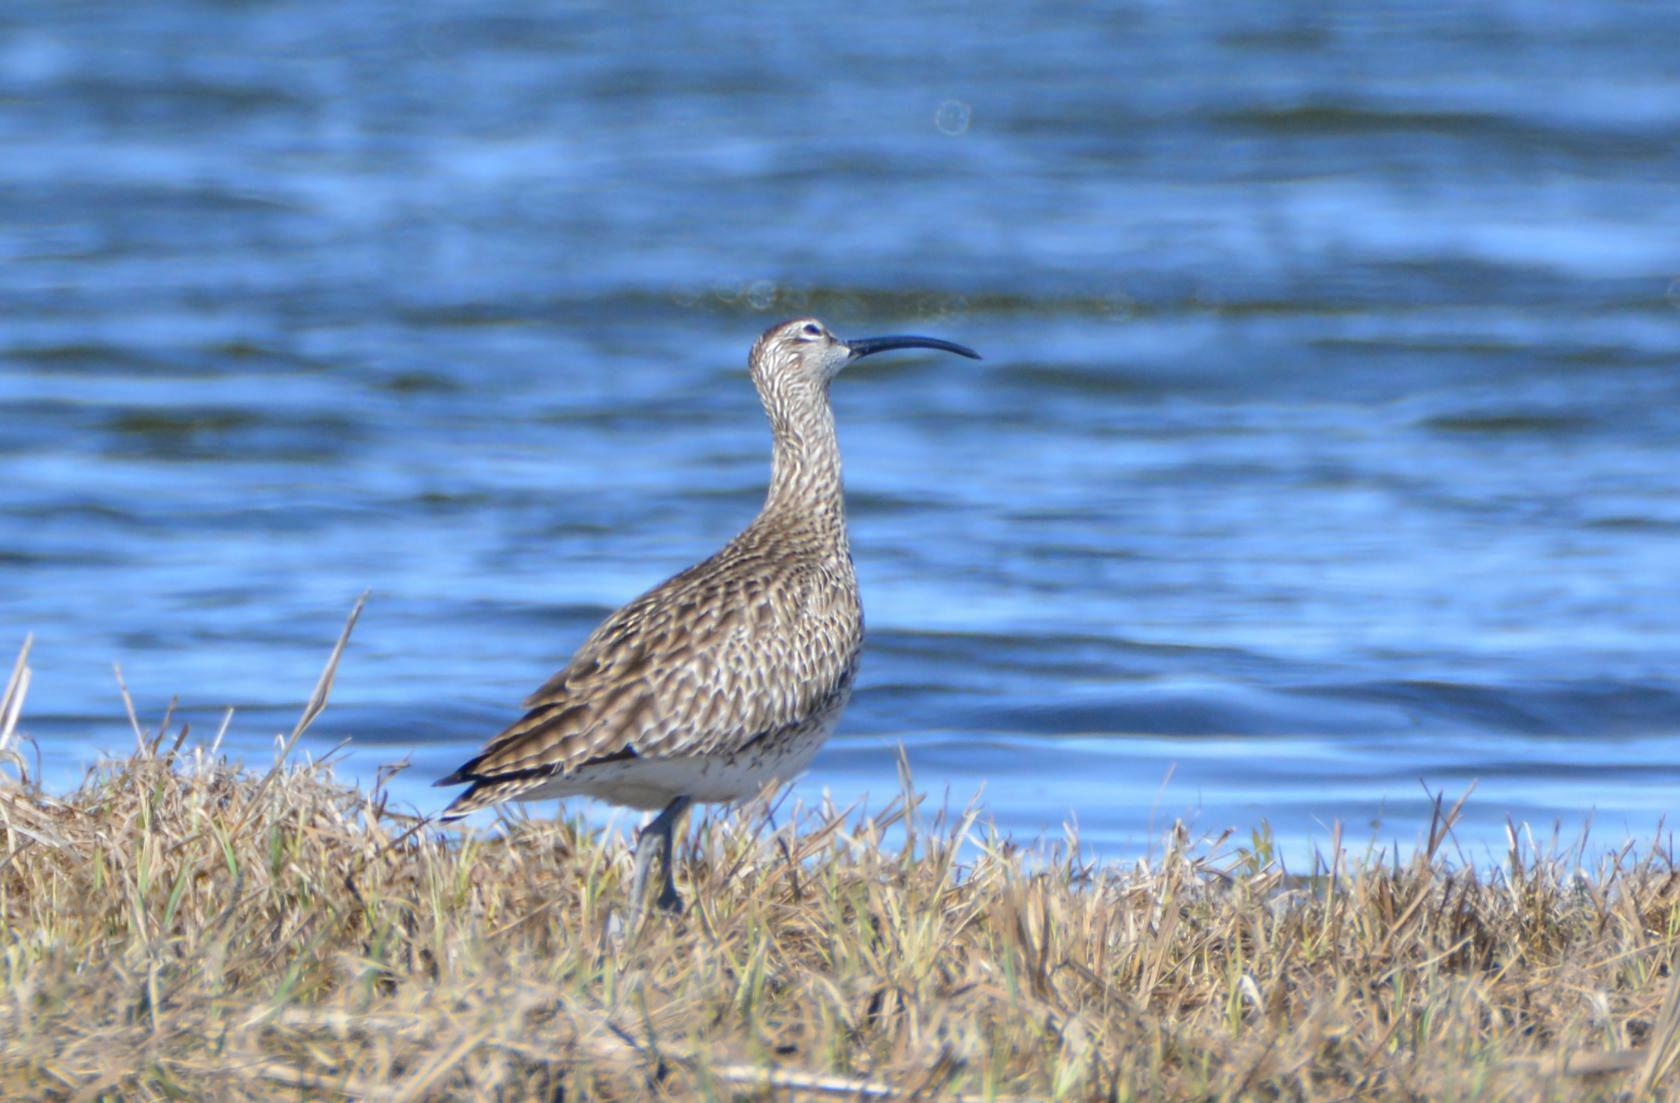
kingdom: Animalia
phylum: Chordata
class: Aves
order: Charadriiformes
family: Scolopacidae
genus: Numenius
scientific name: Numenius phaeopus
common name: Whimbrel
